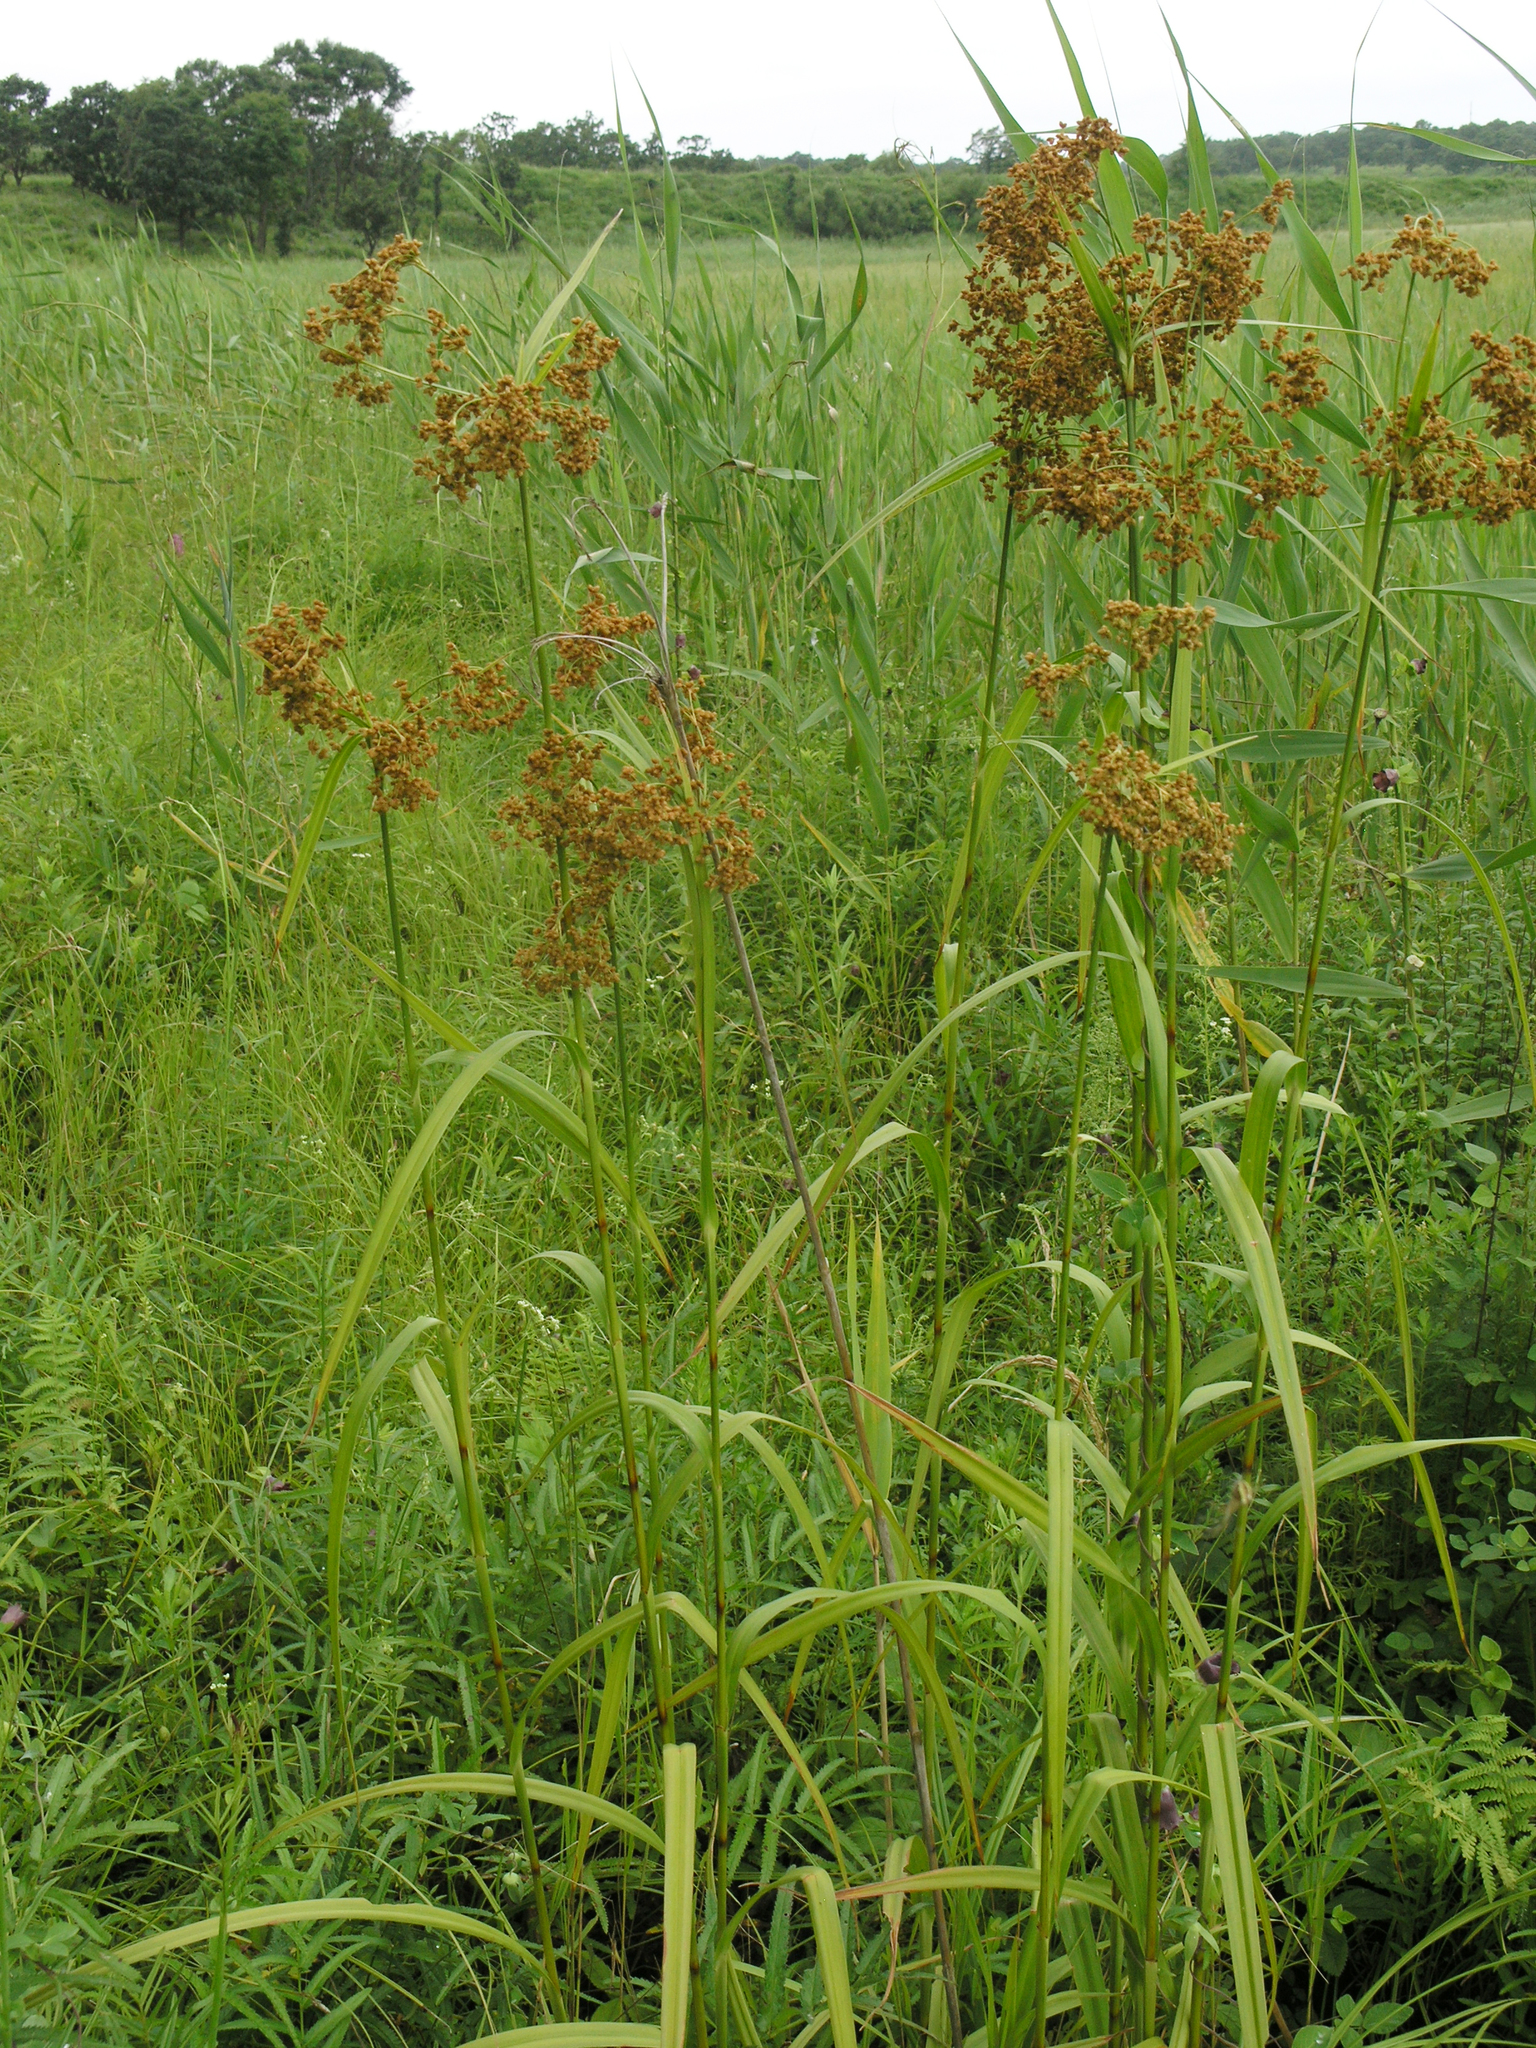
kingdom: Plantae
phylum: Tracheophyta
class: Liliopsida
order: Poales
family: Cyperaceae
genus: Scirpus
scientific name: Scirpus lushanensis
